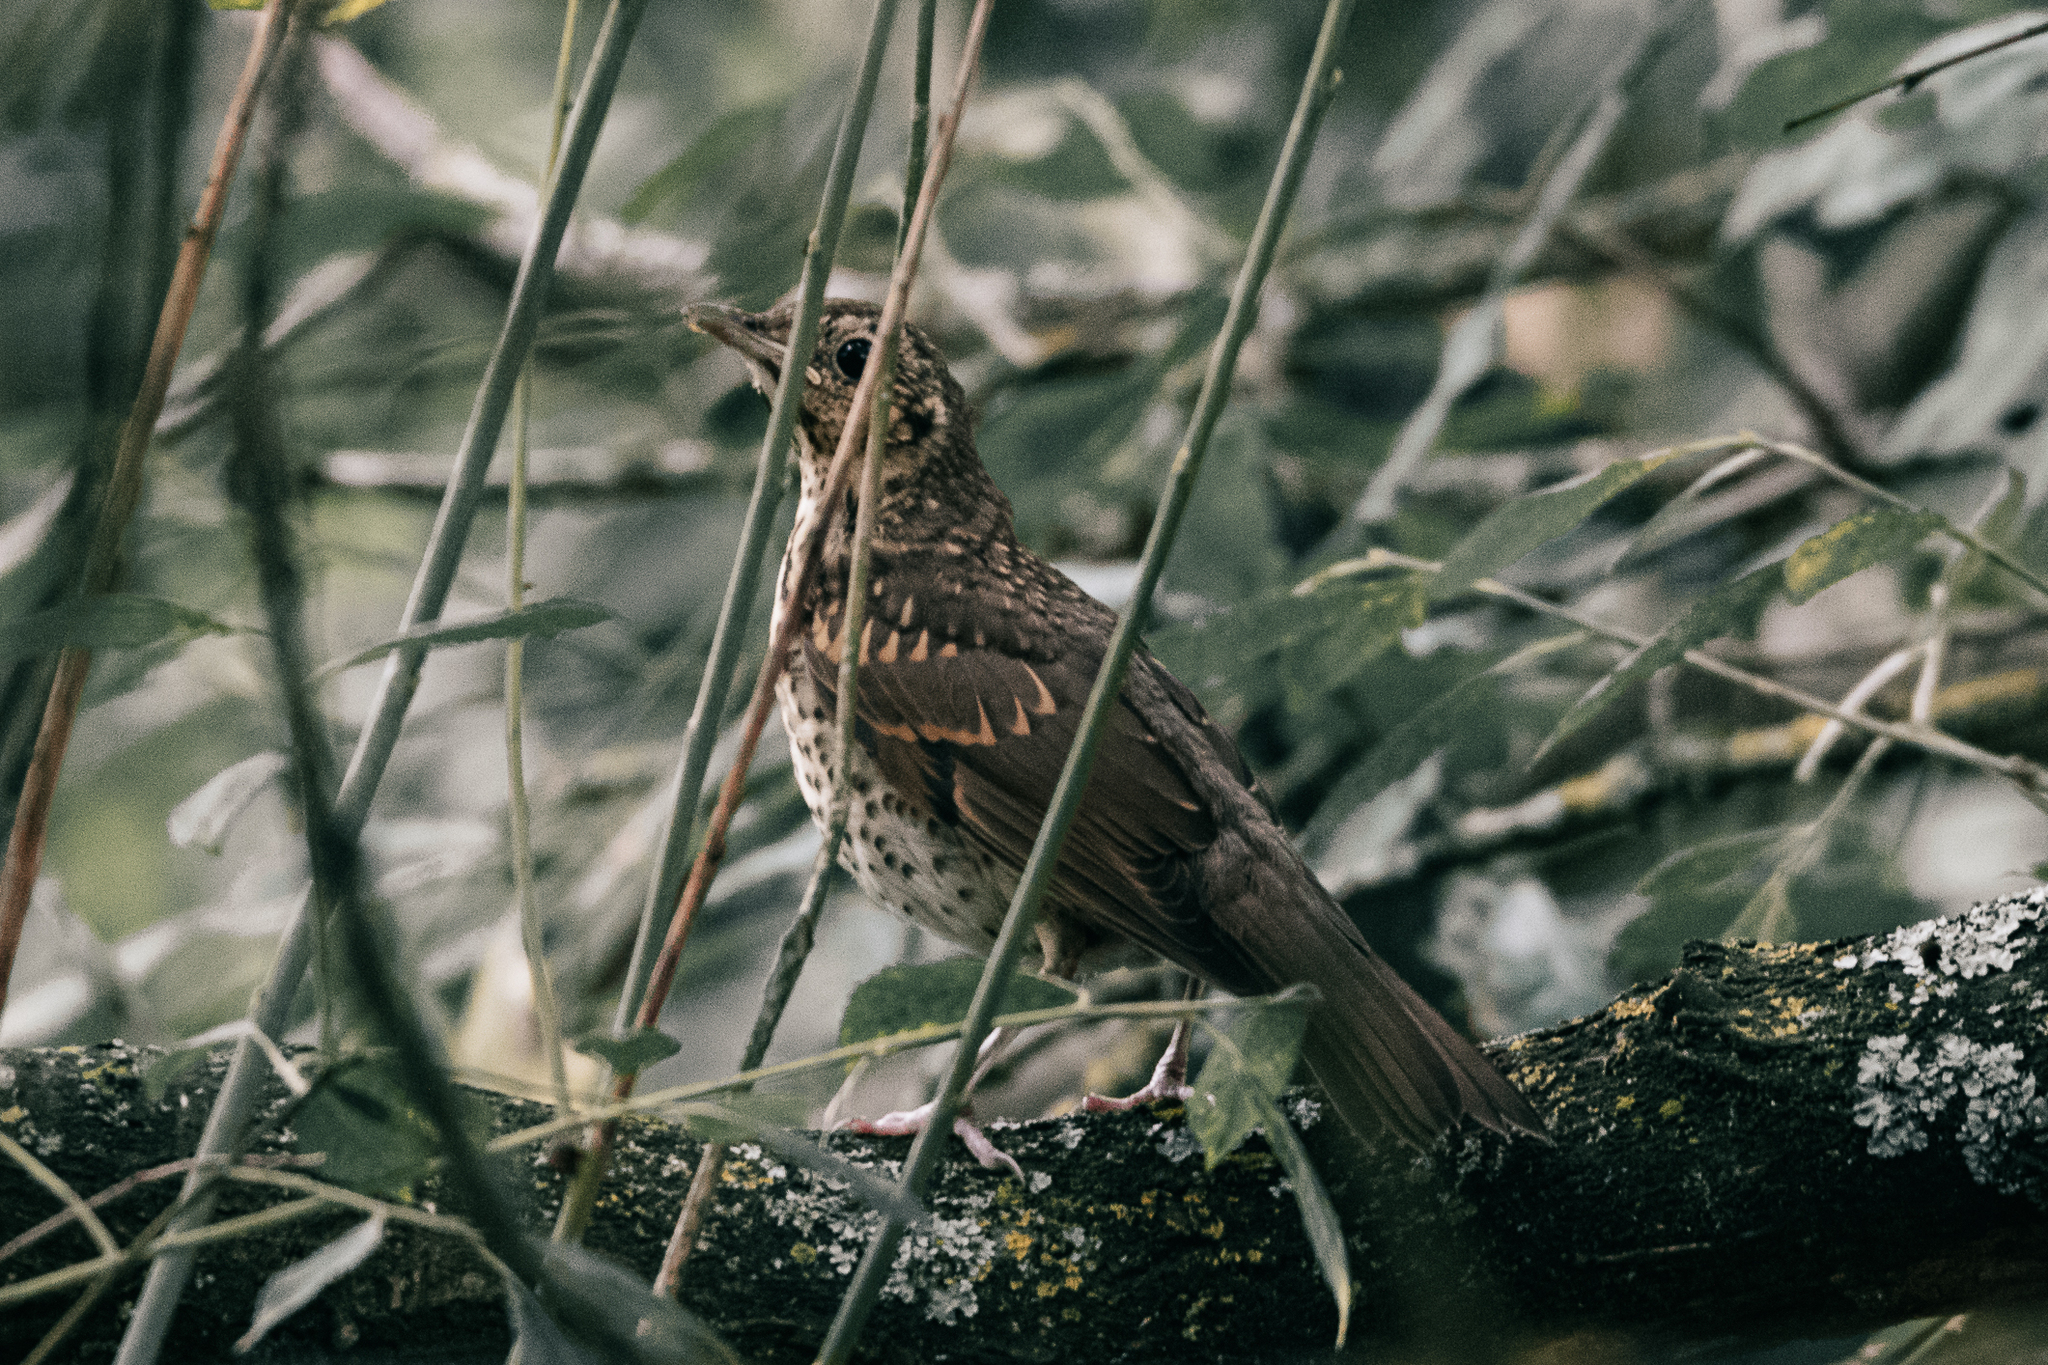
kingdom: Animalia
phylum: Chordata
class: Aves
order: Passeriformes
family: Turdidae
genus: Turdus
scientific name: Turdus viscivorus
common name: Mistle thrush
